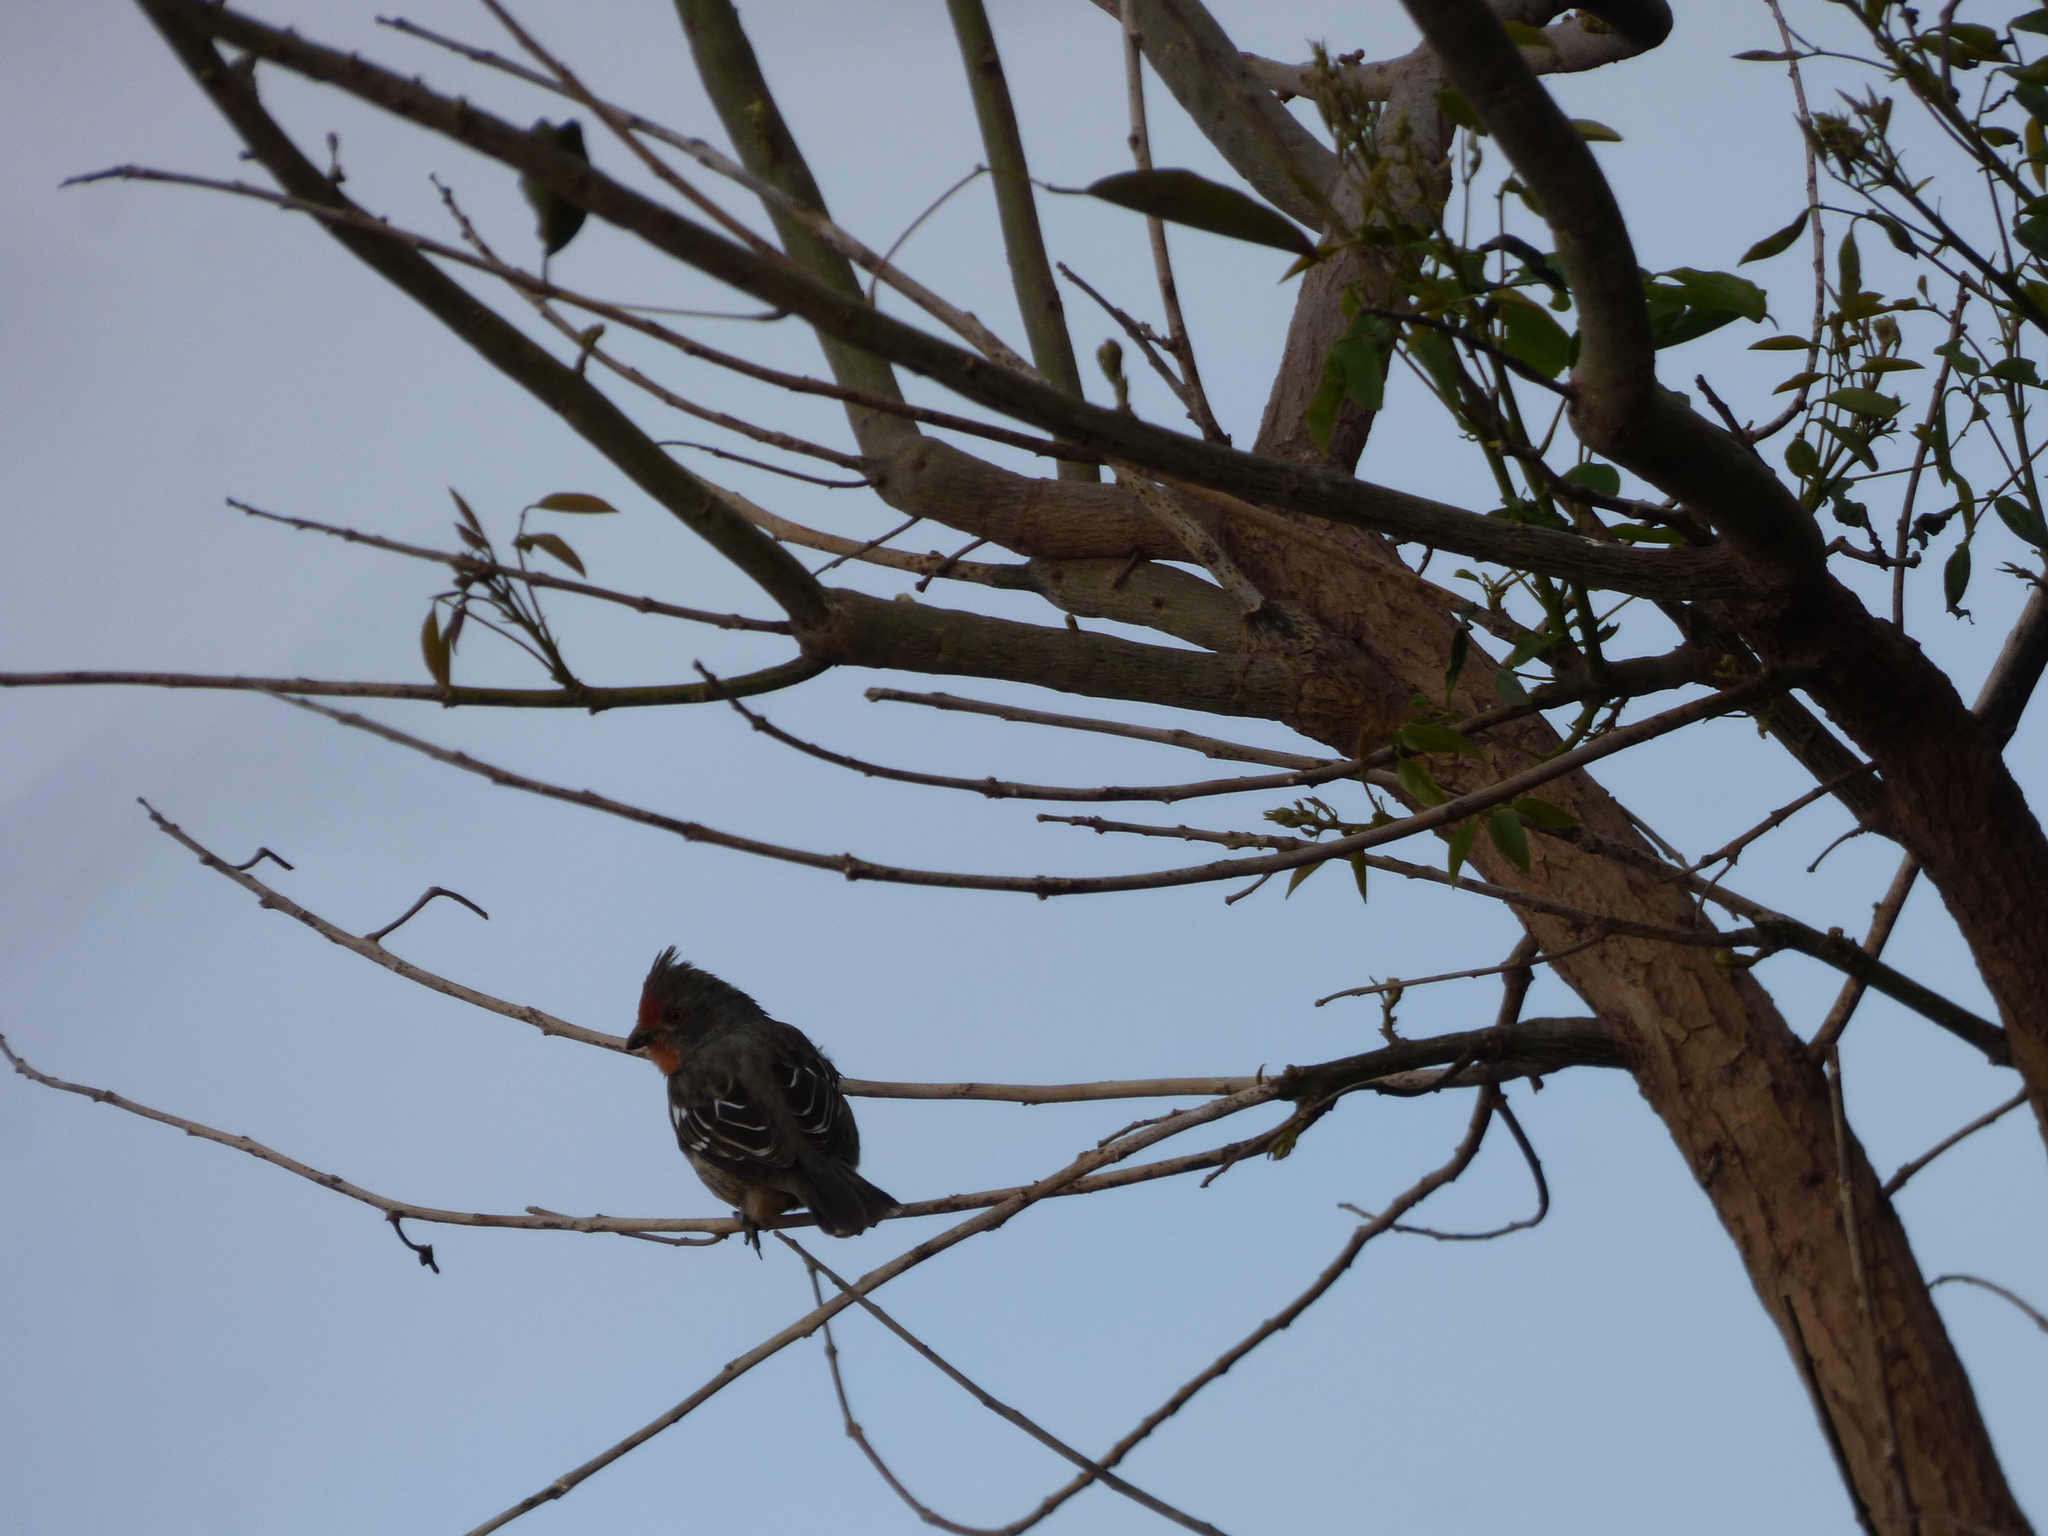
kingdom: Animalia
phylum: Chordata
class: Aves
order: Passeriformes
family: Cotingidae
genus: Phytotoma
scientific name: Phytotoma rutila
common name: White-tipped plantcutter
